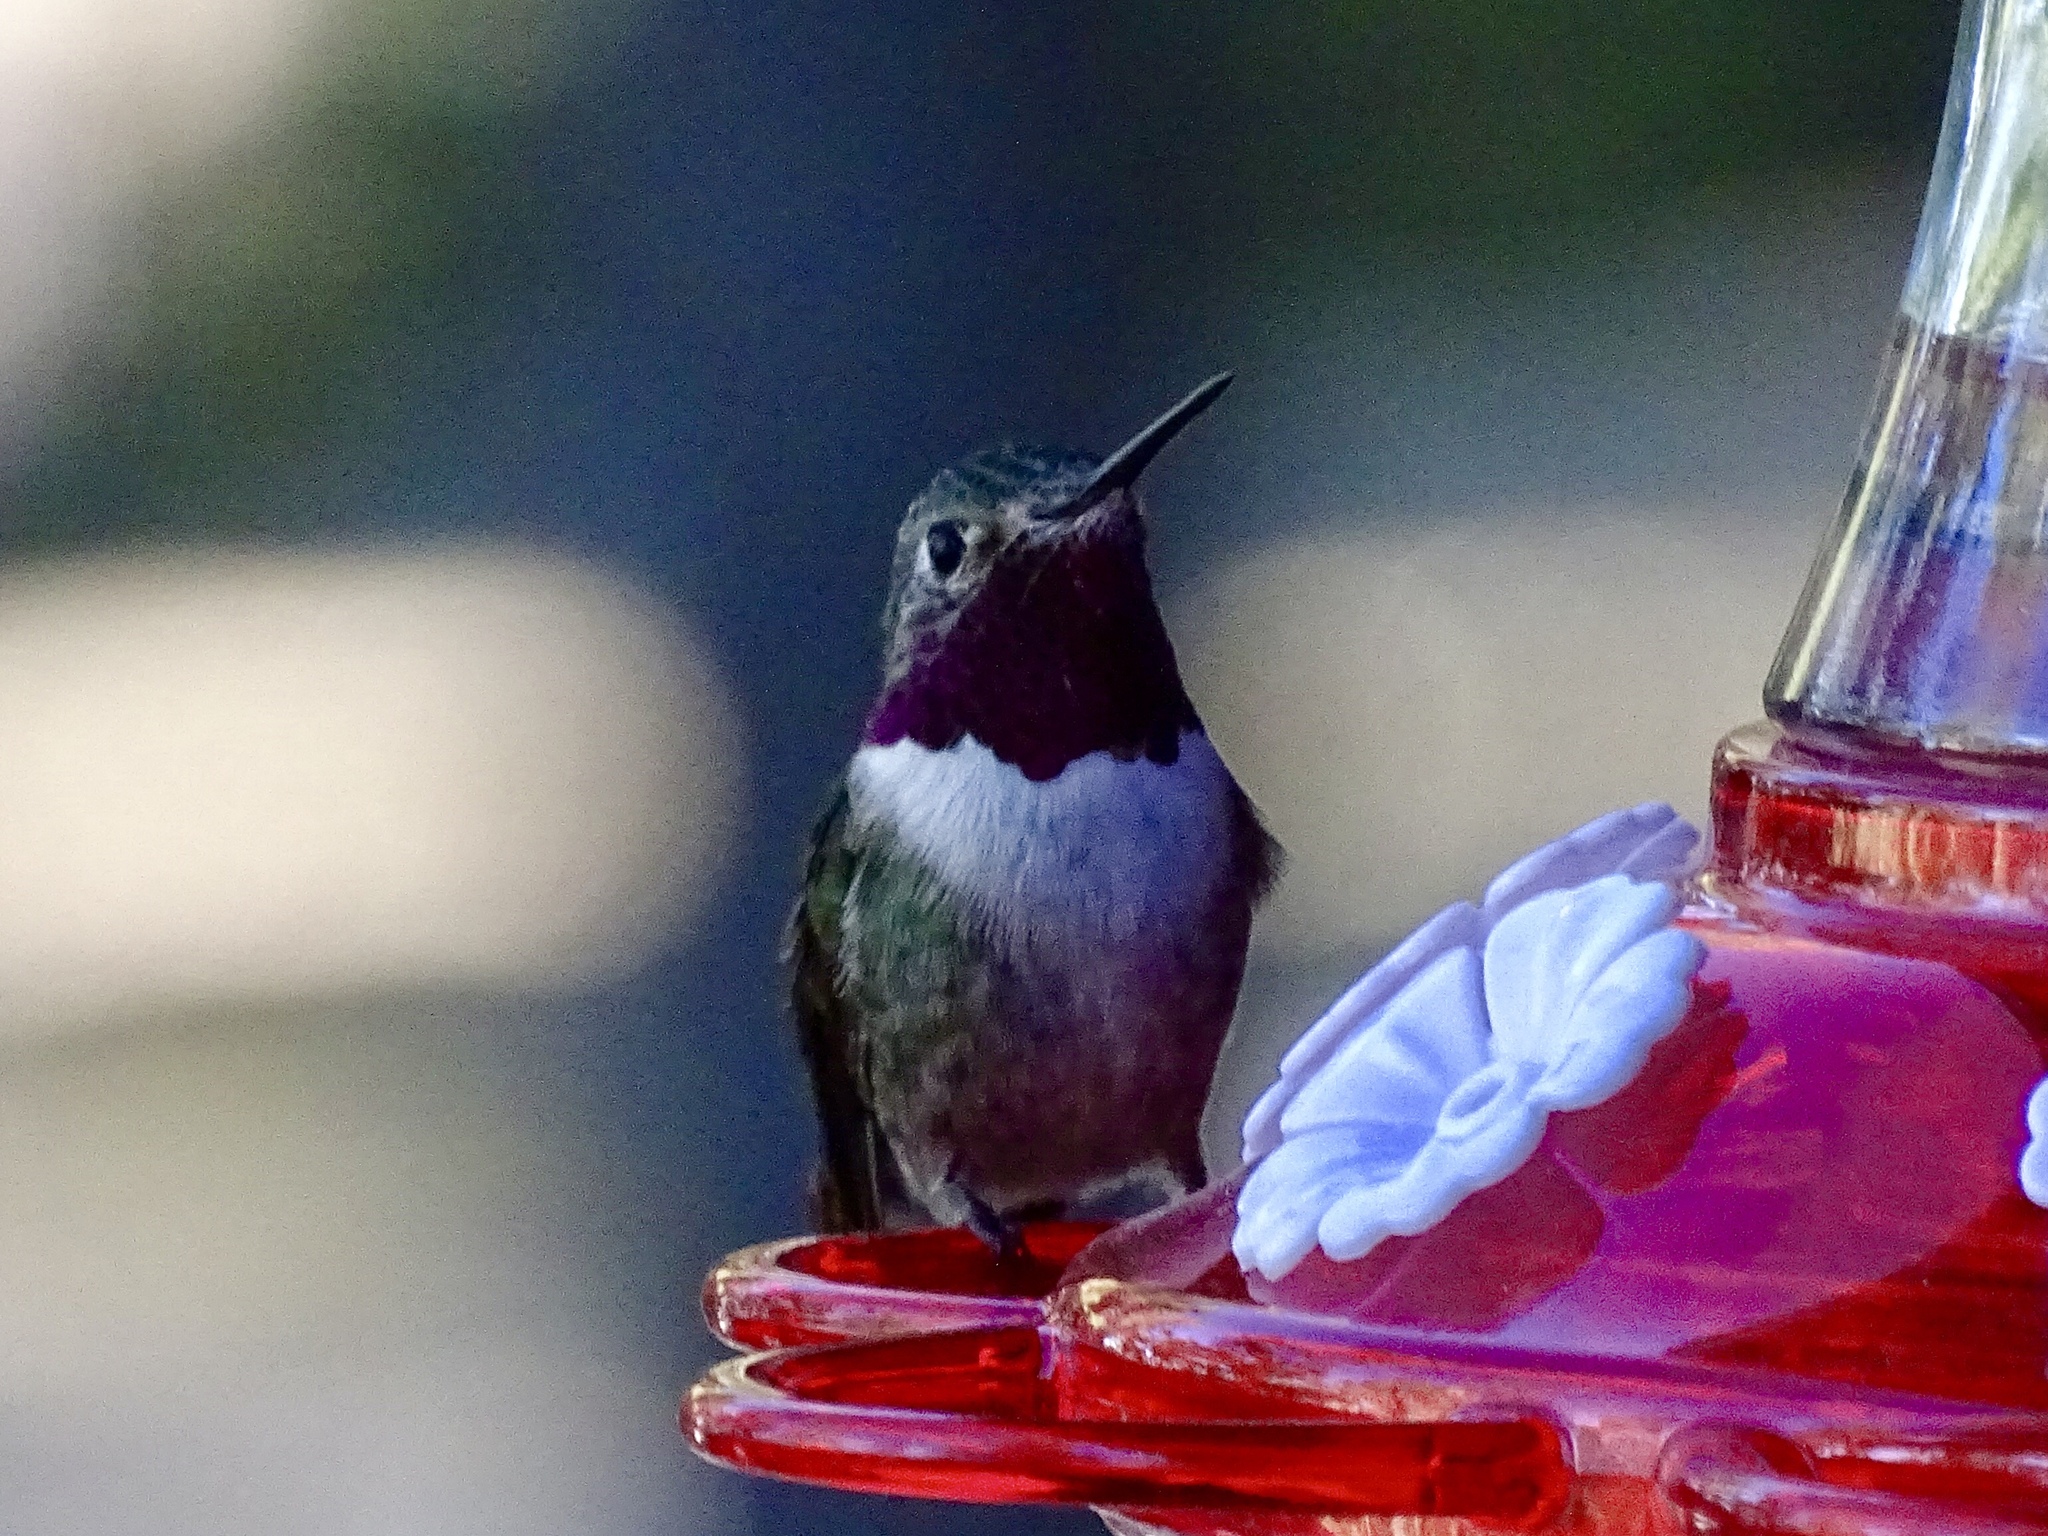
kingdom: Animalia
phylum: Chordata
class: Aves
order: Apodiformes
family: Trochilidae
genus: Selasphorus
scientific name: Selasphorus platycercus
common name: Broad-tailed hummingbird
